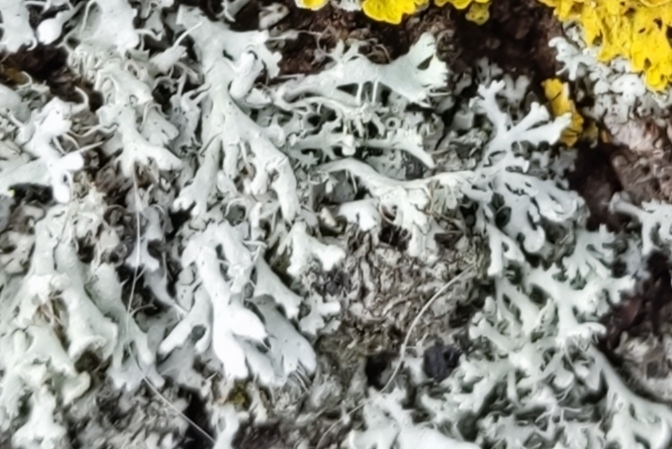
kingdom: Fungi
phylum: Ascomycota
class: Lecanoromycetes
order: Caliciales
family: Physciaceae
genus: Physcia
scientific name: Physcia adscendens
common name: Hooded rosette lichen
